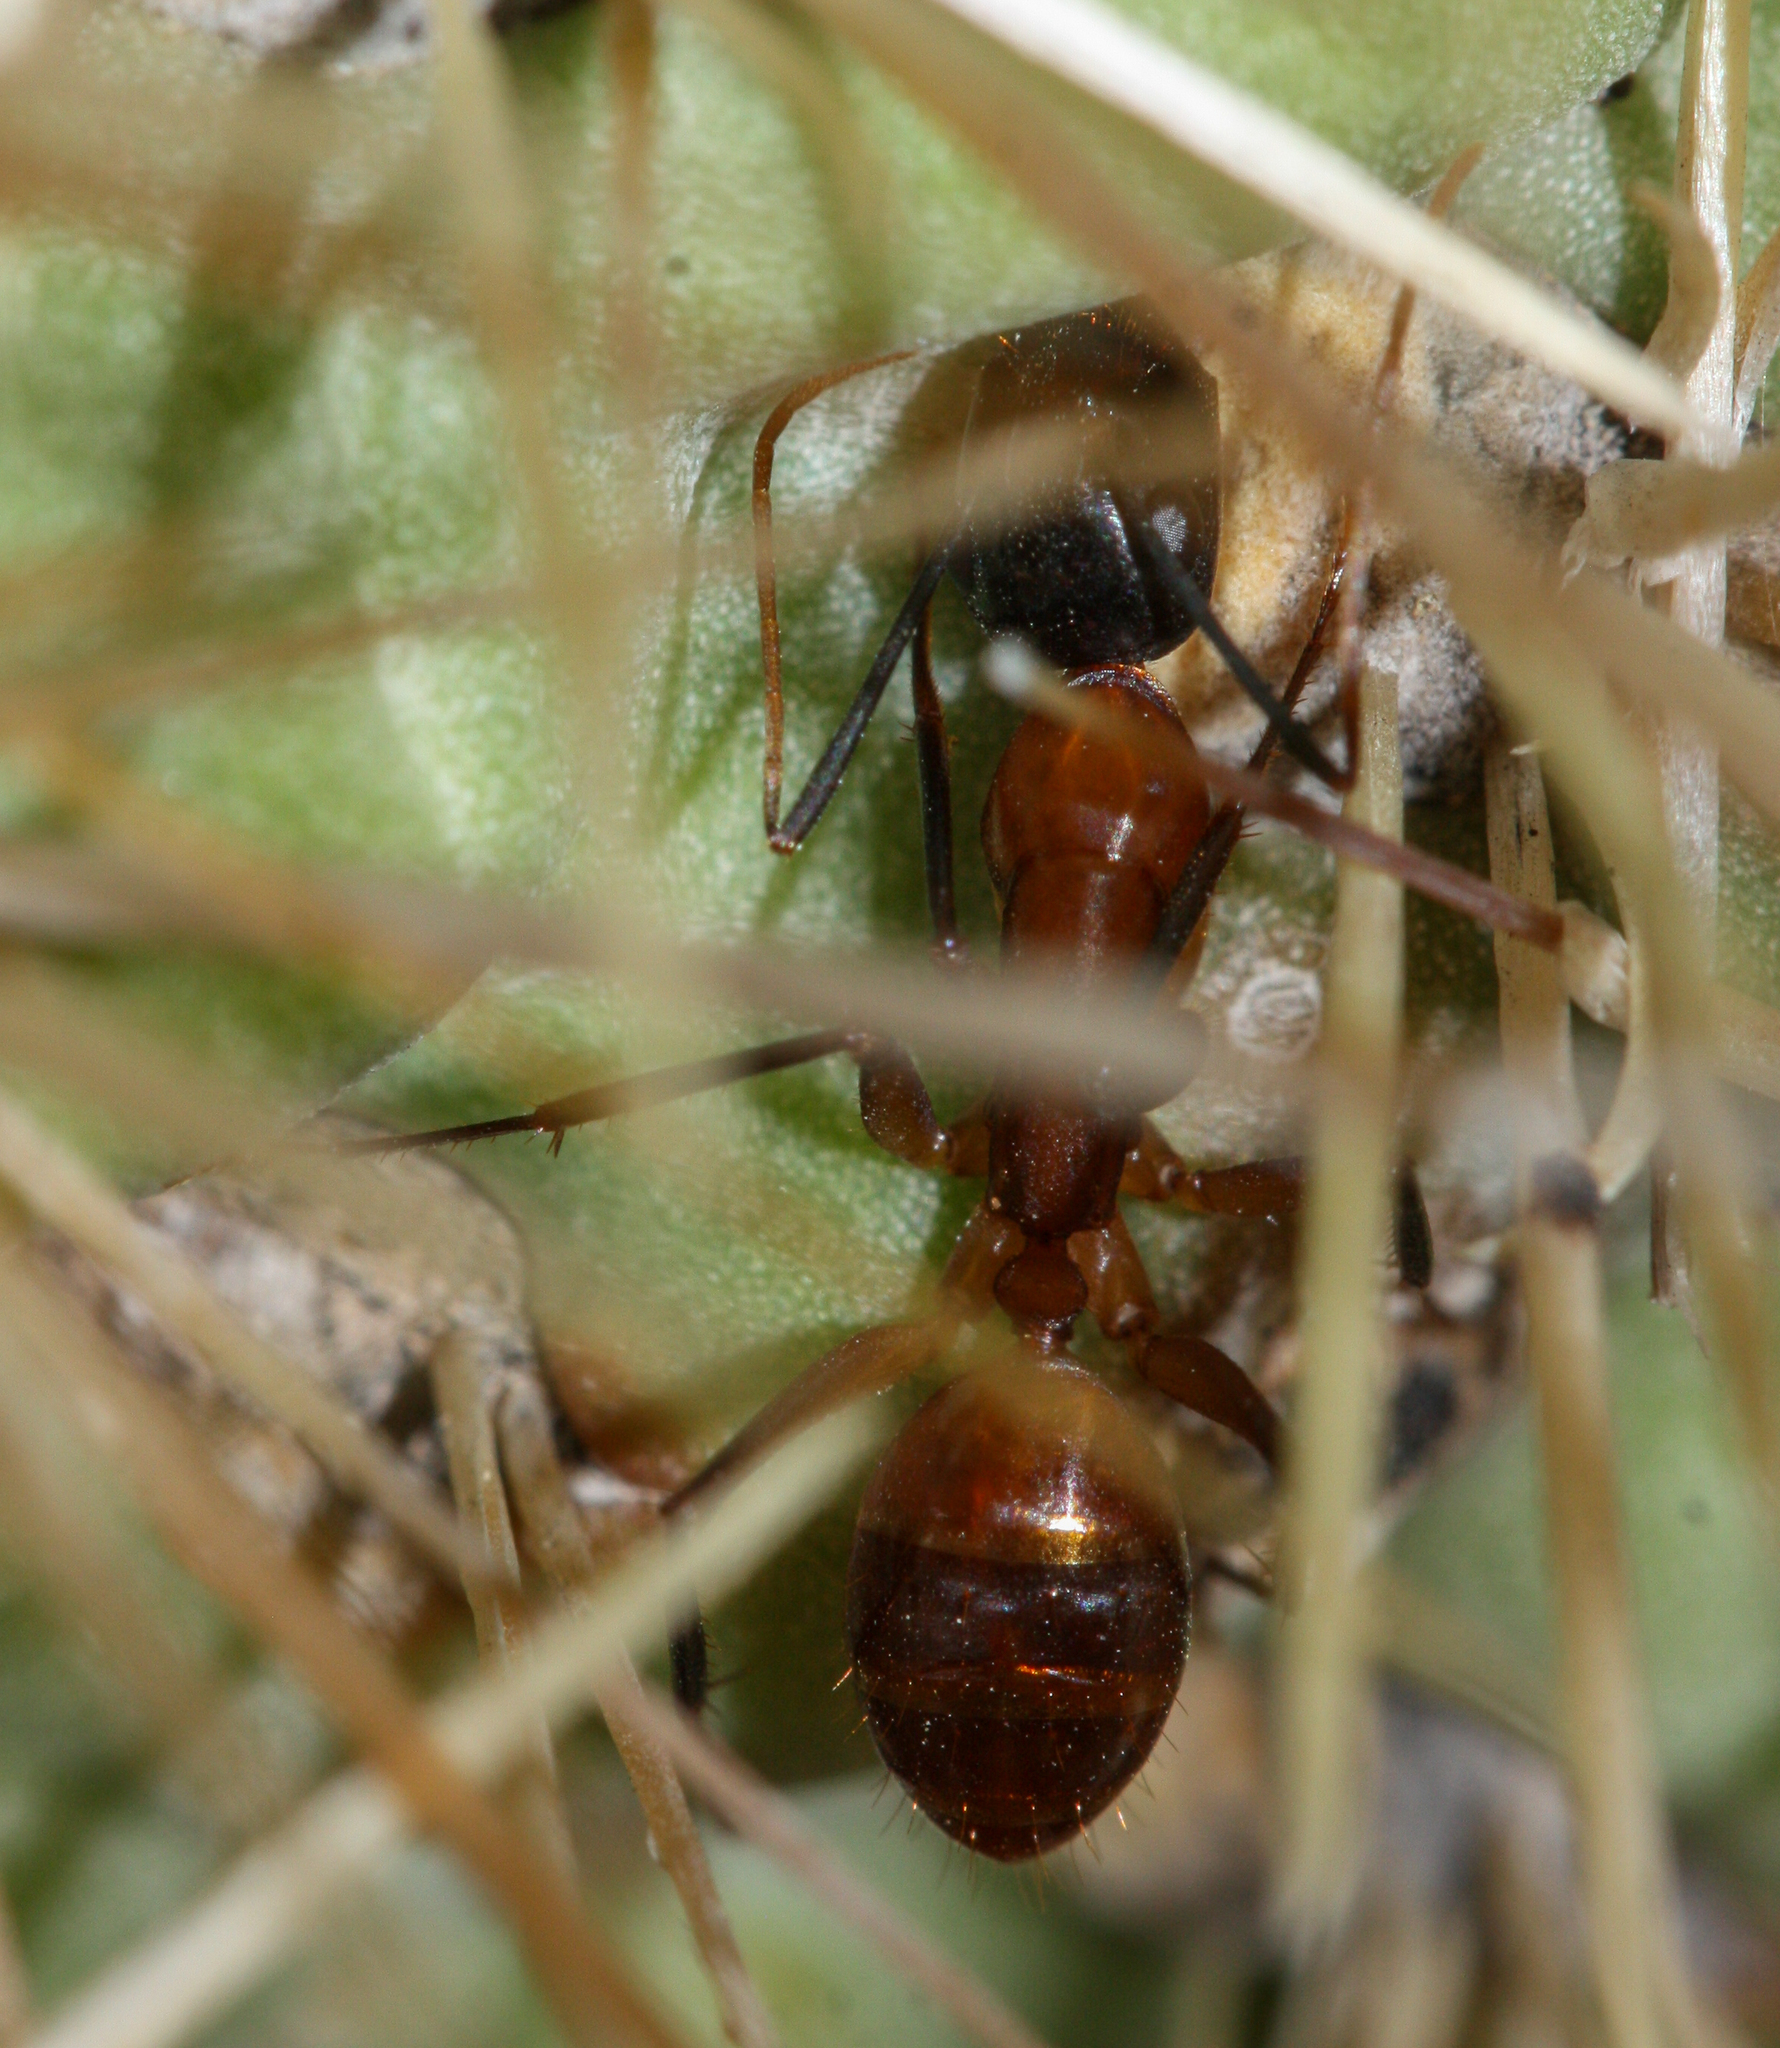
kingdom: Animalia
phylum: Arthropoda
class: Insecta
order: Hymenoptera
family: Formicidae
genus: Camponotus
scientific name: Camponotus ocreatus
